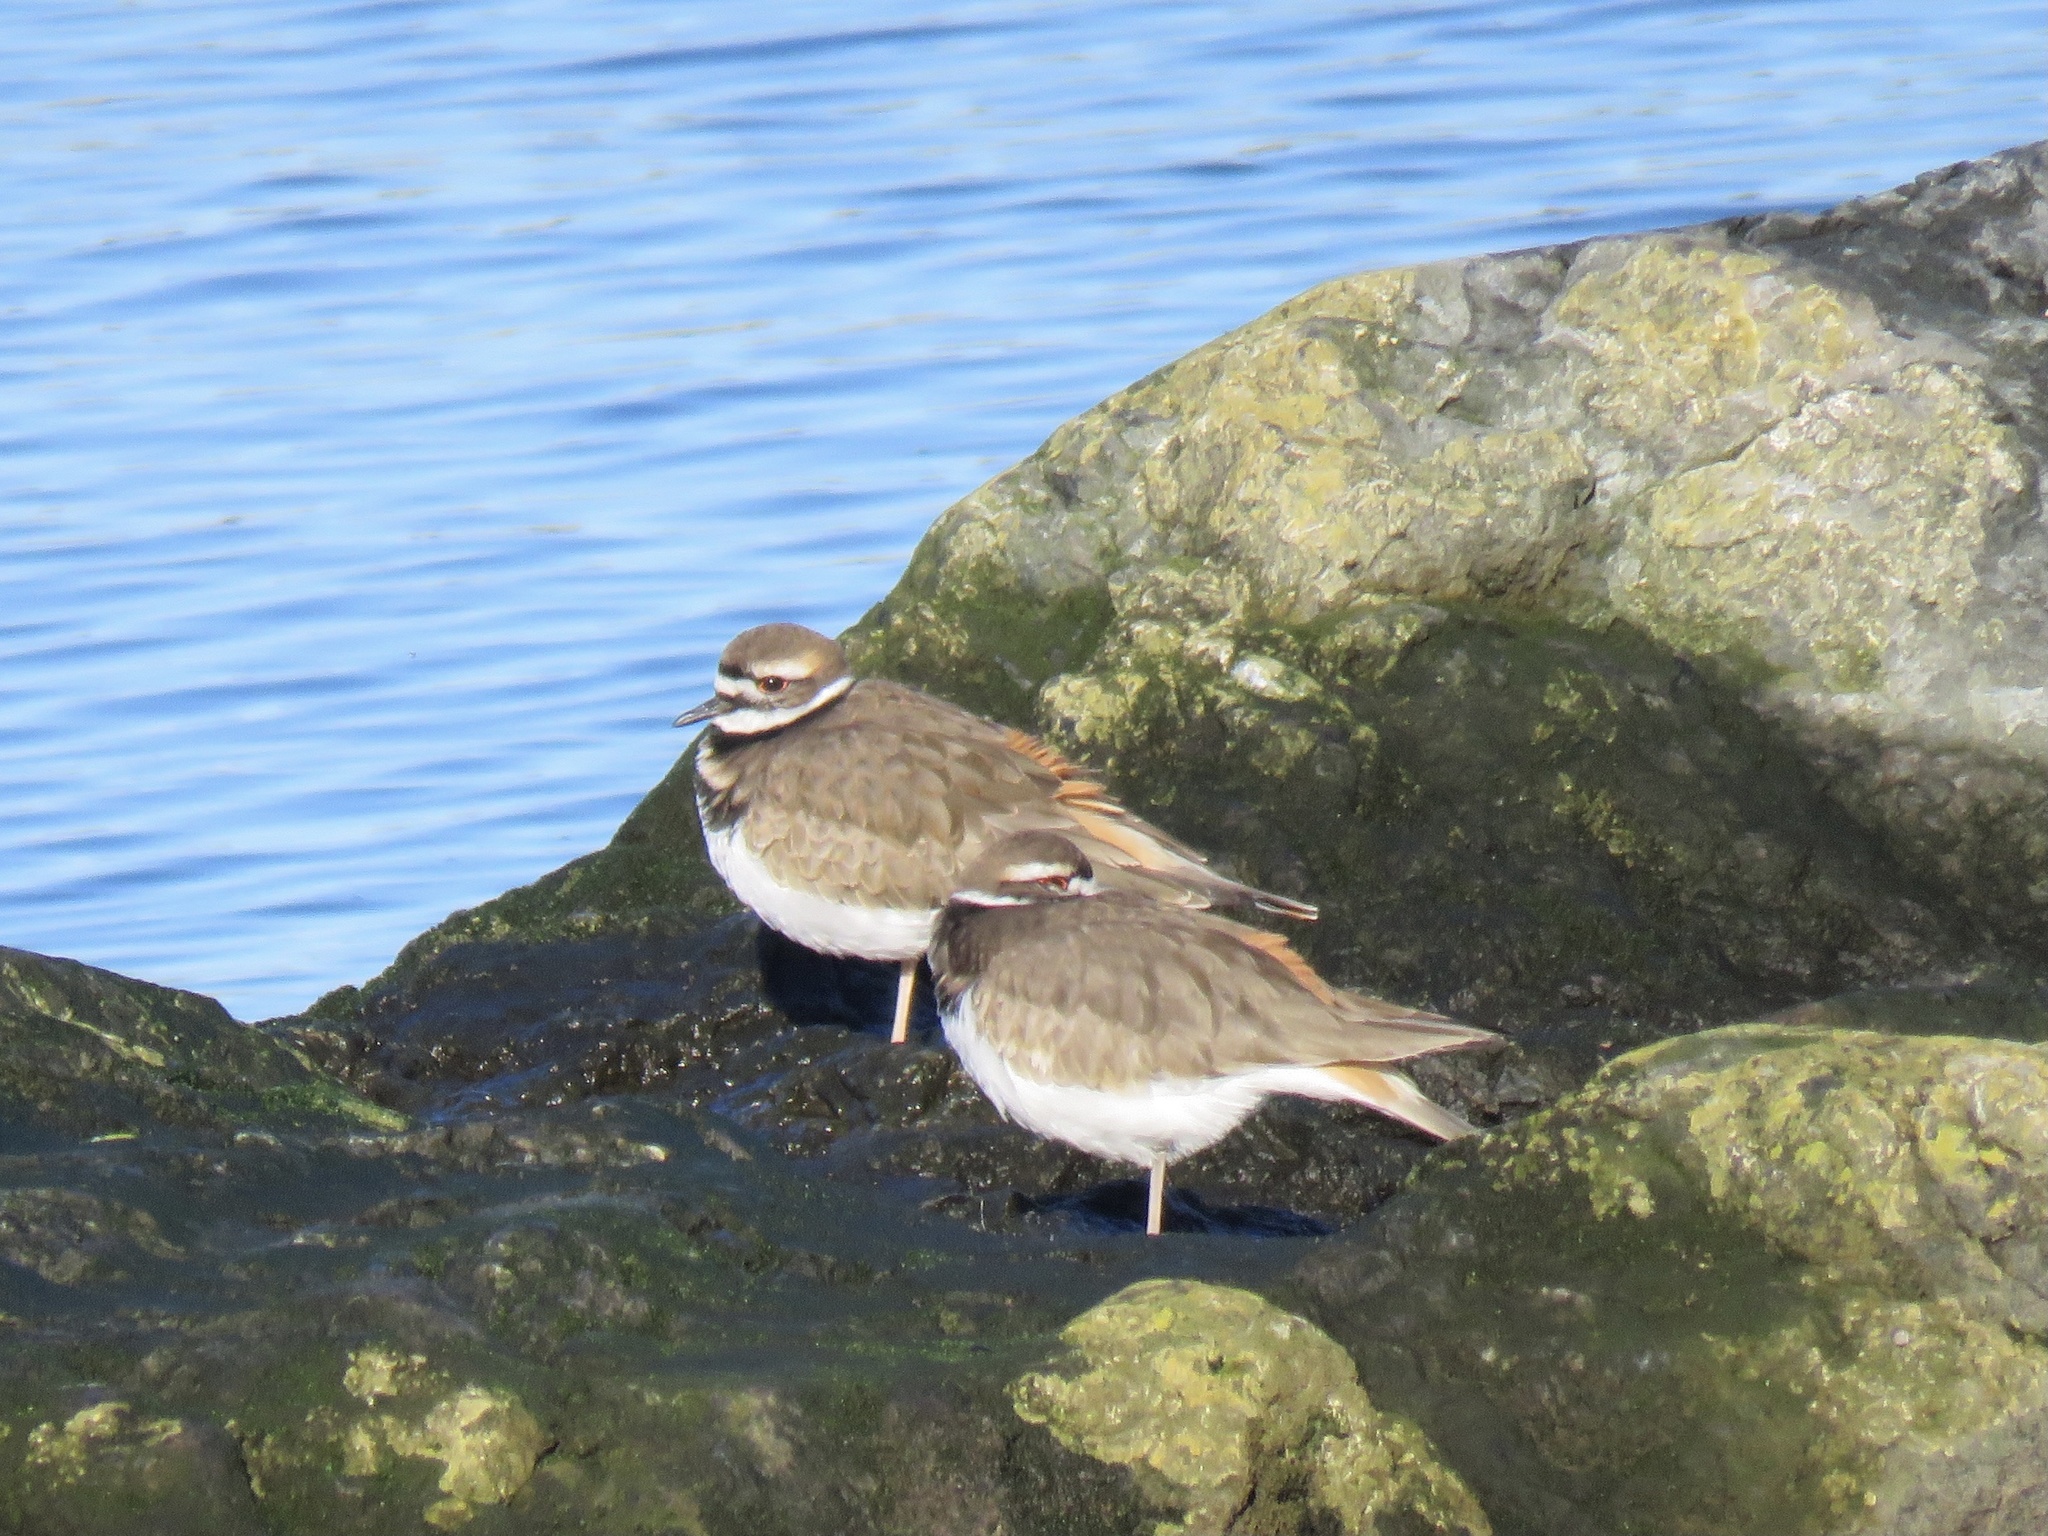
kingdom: Animalia
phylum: Chordata
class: Aves
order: Charadriiformes
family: Charadriidae
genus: Charadrius
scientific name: Charadrius vociferus
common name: Killdeer
